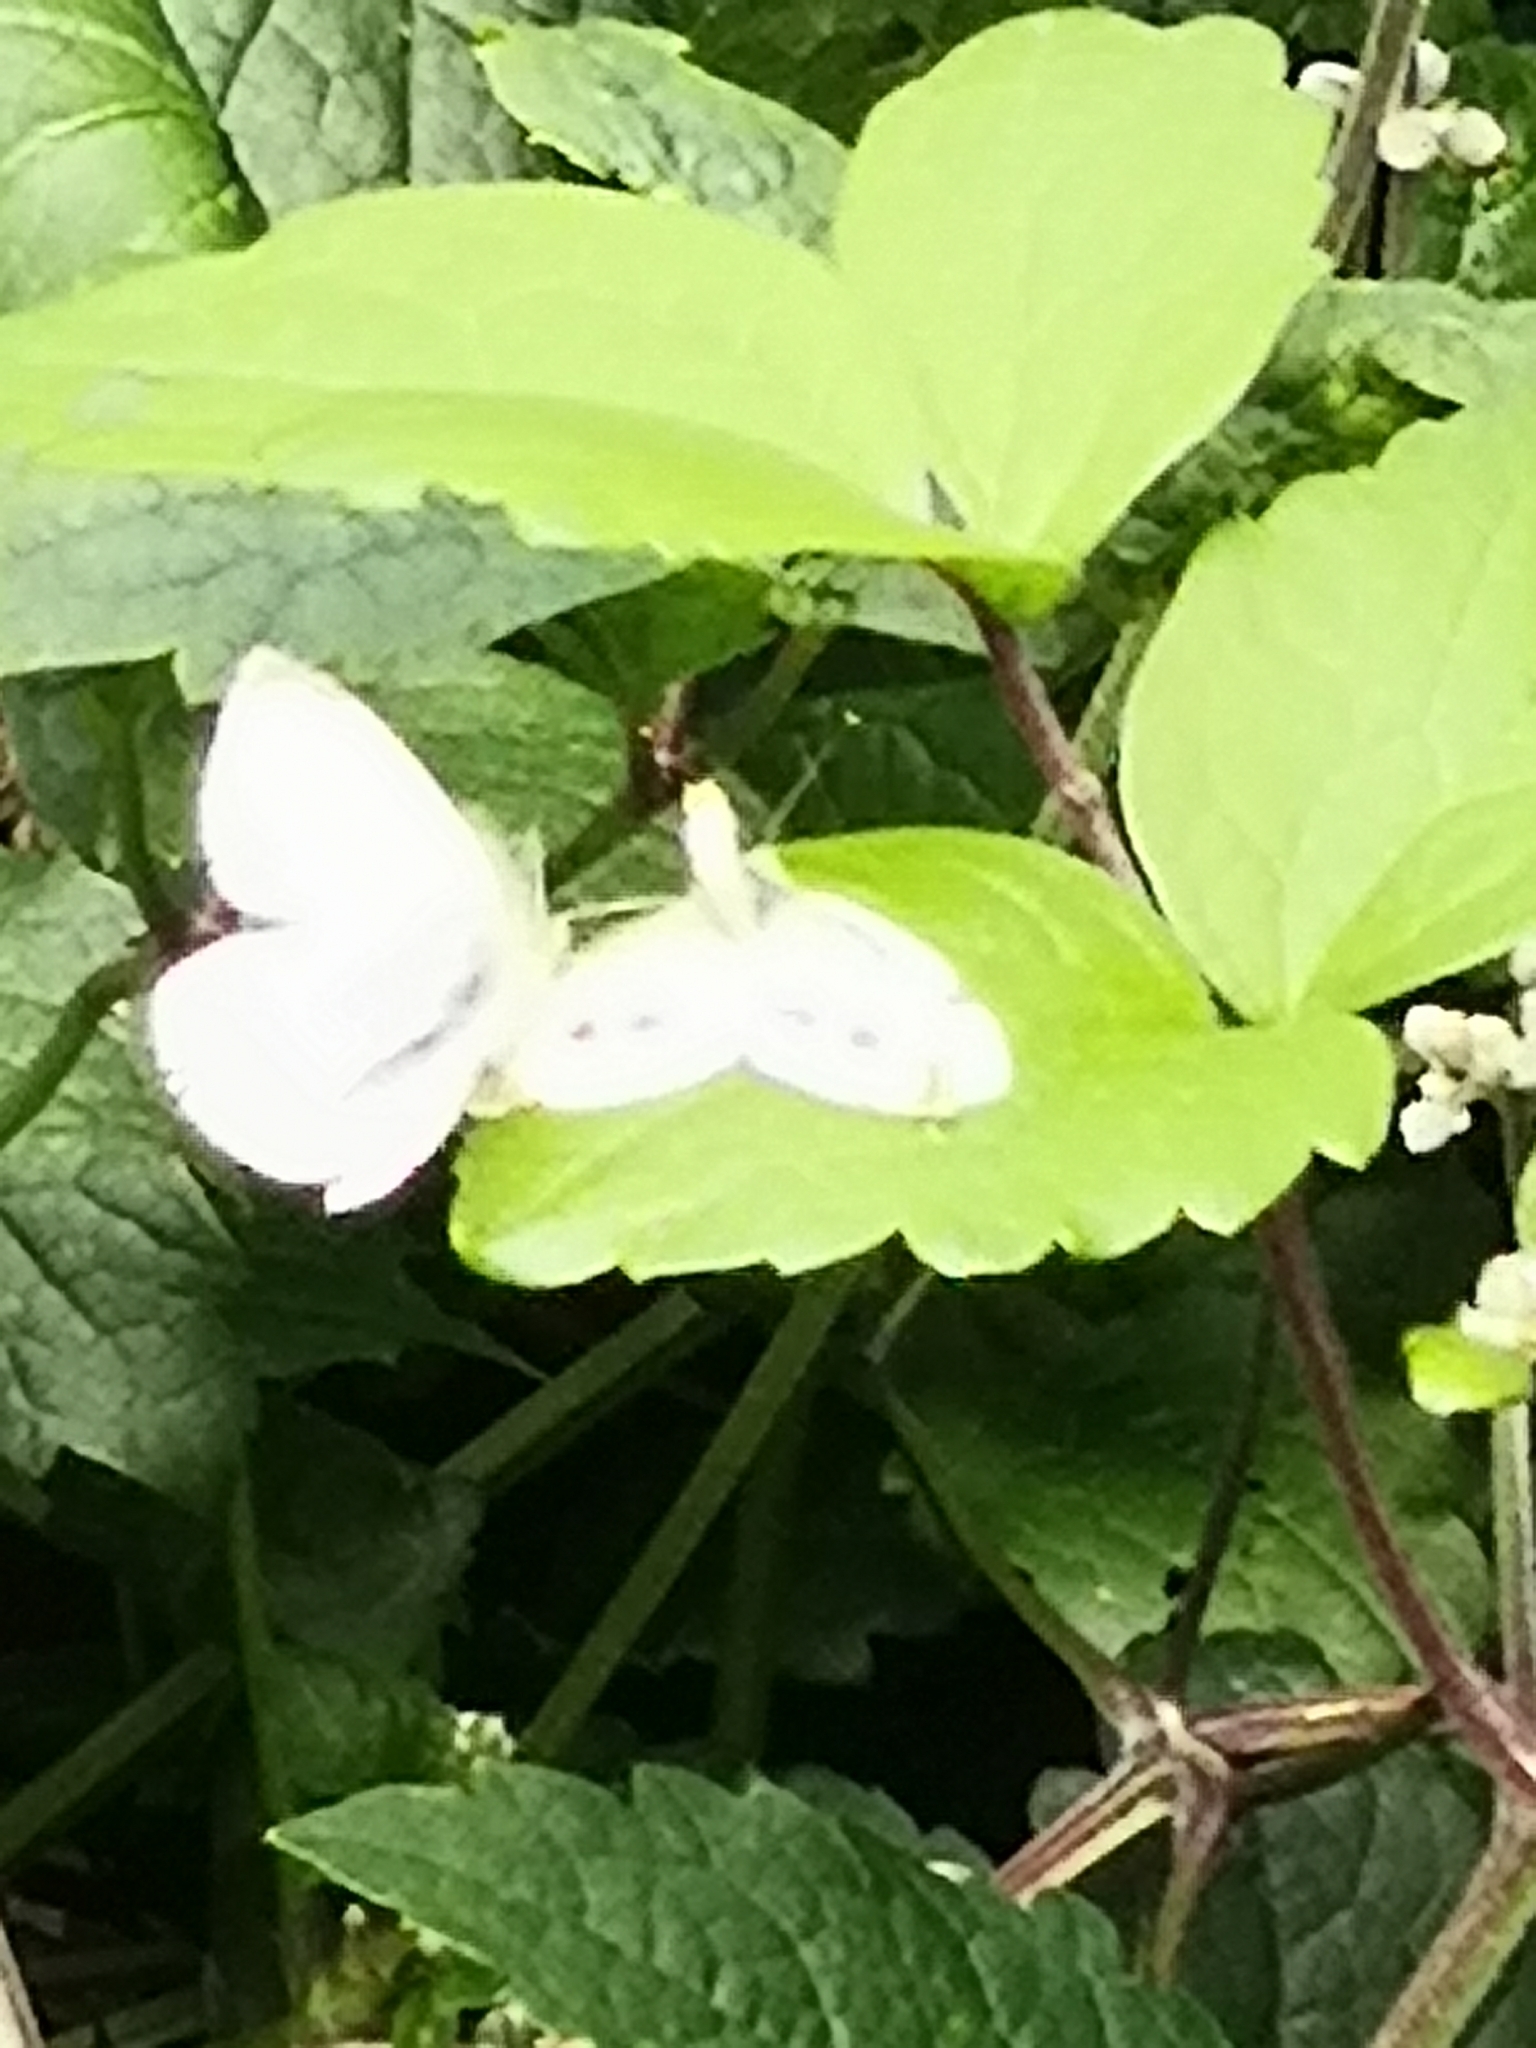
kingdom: Animalia
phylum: Arthropoda
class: Insecta
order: Lepidoptera
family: Pieridae
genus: Pieris
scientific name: Pieris rapae
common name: Small white
